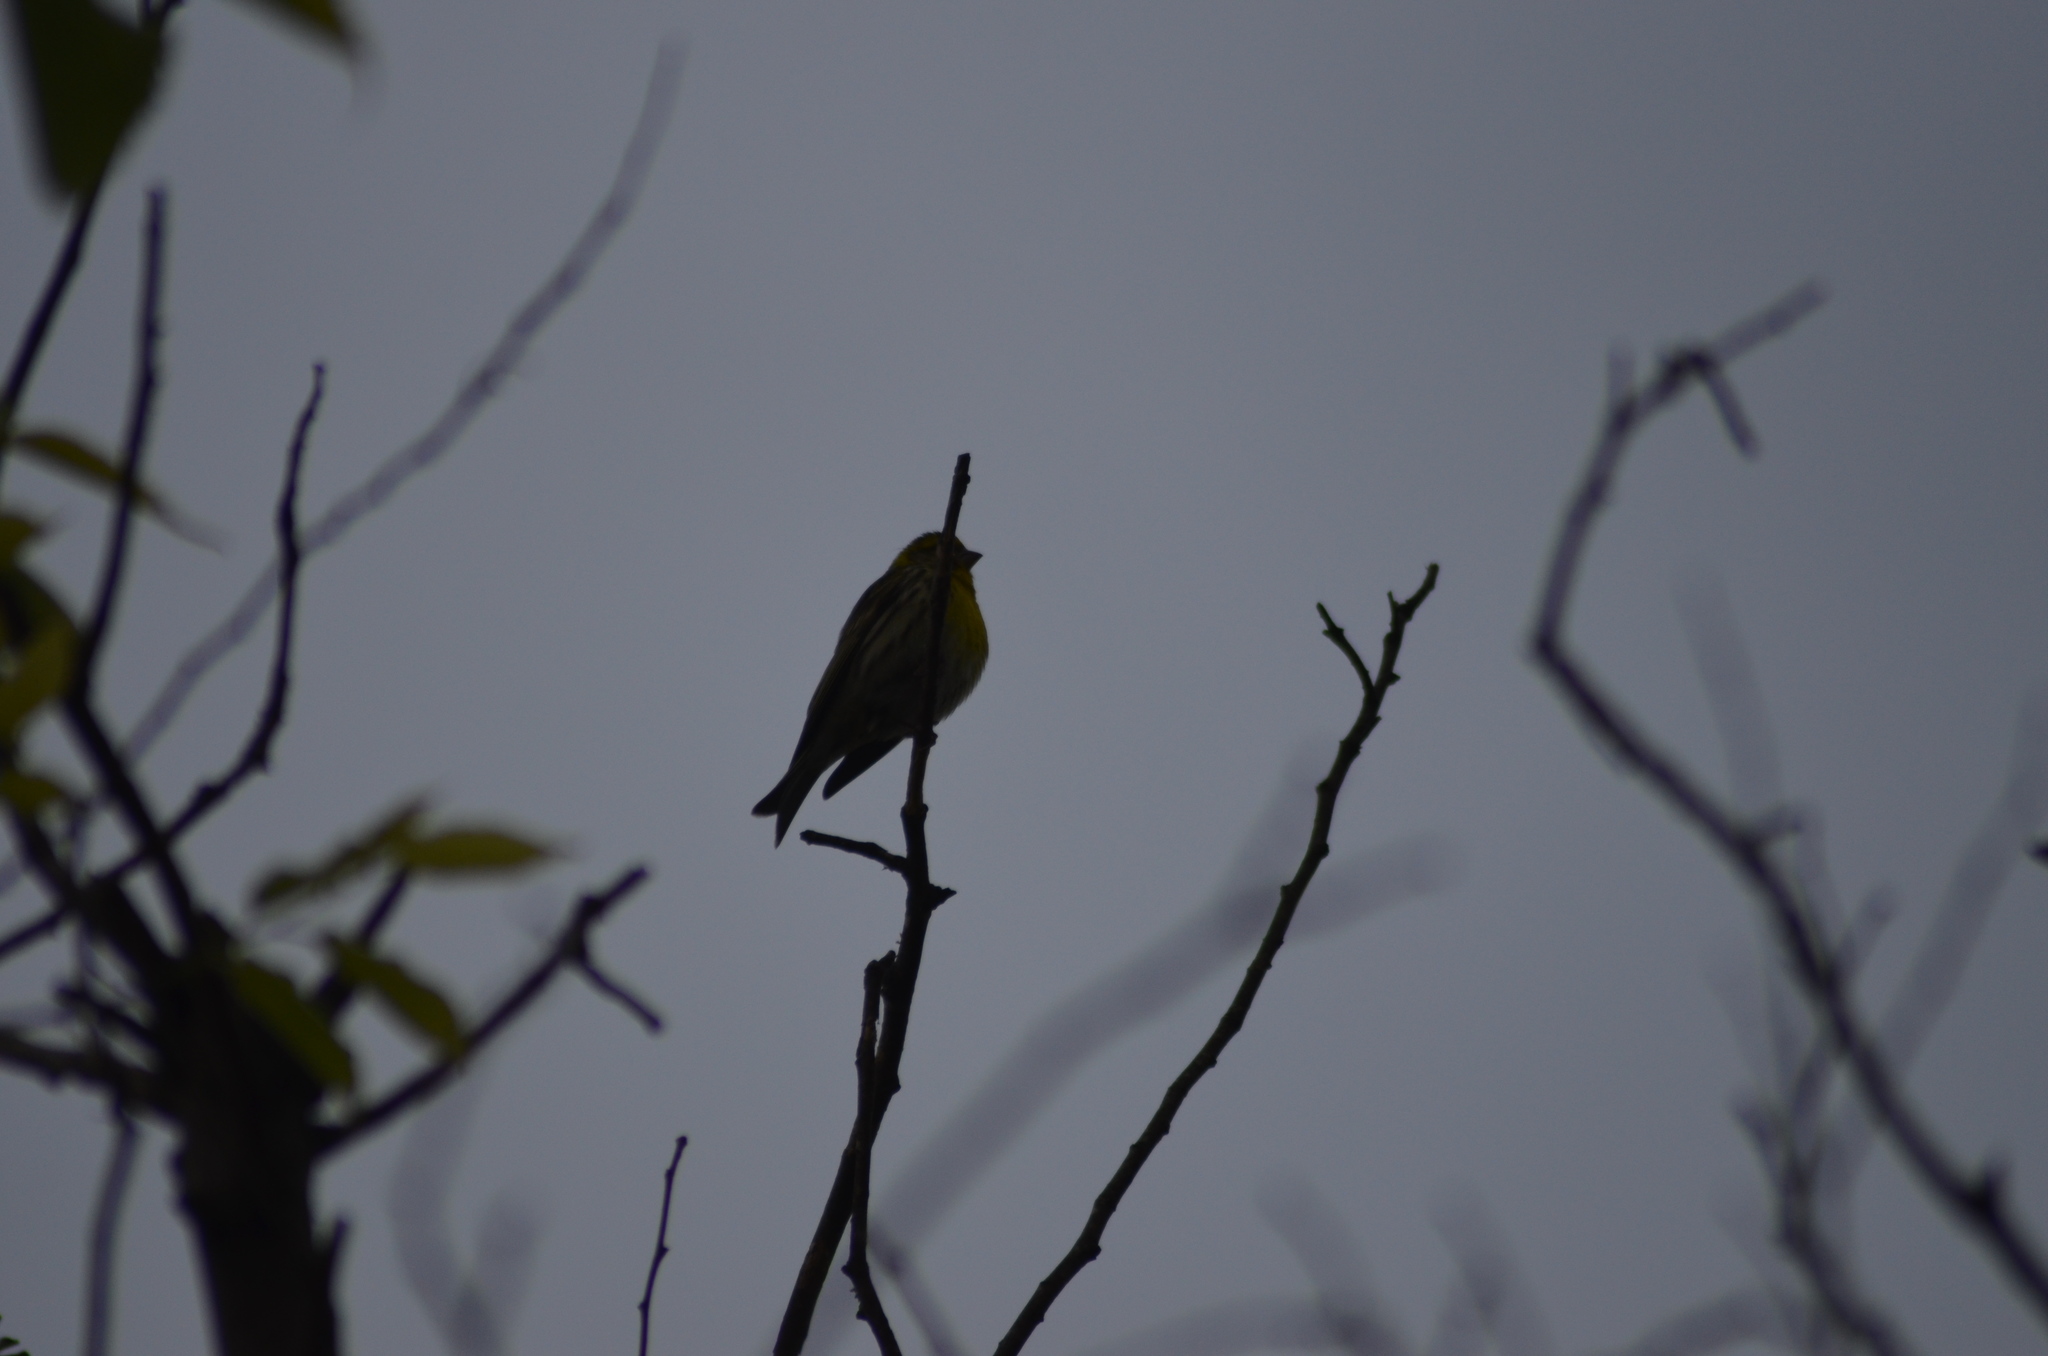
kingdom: Animalia
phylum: Chordata
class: Aves
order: Passeriformes
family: Fringillidae
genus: Serinus
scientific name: Serinus serinus
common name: European serin
